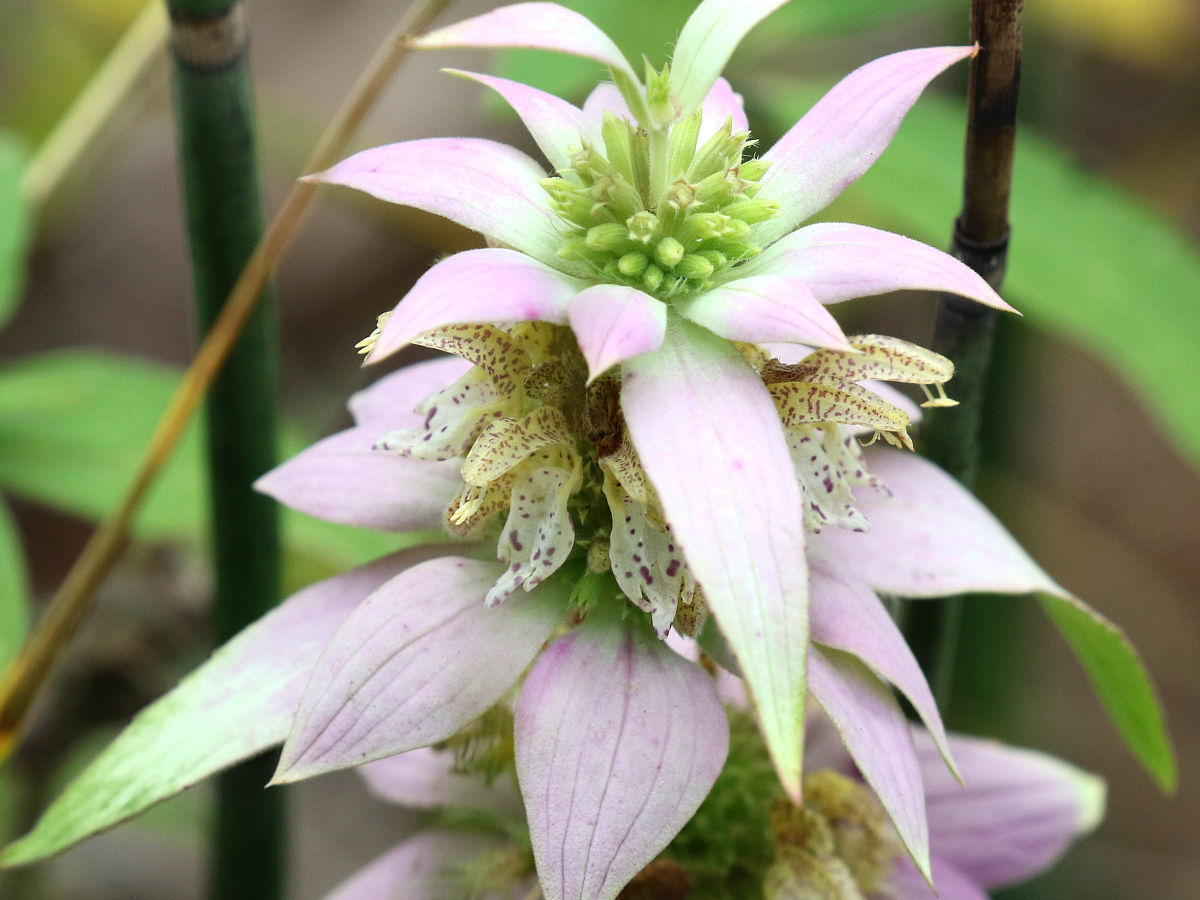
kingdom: Plantae
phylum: Tracheophyta
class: Magnoliopsida
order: Lamiales
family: Lamiaceae
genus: Monarda
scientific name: Monarda punctata
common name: Dotted monarda
